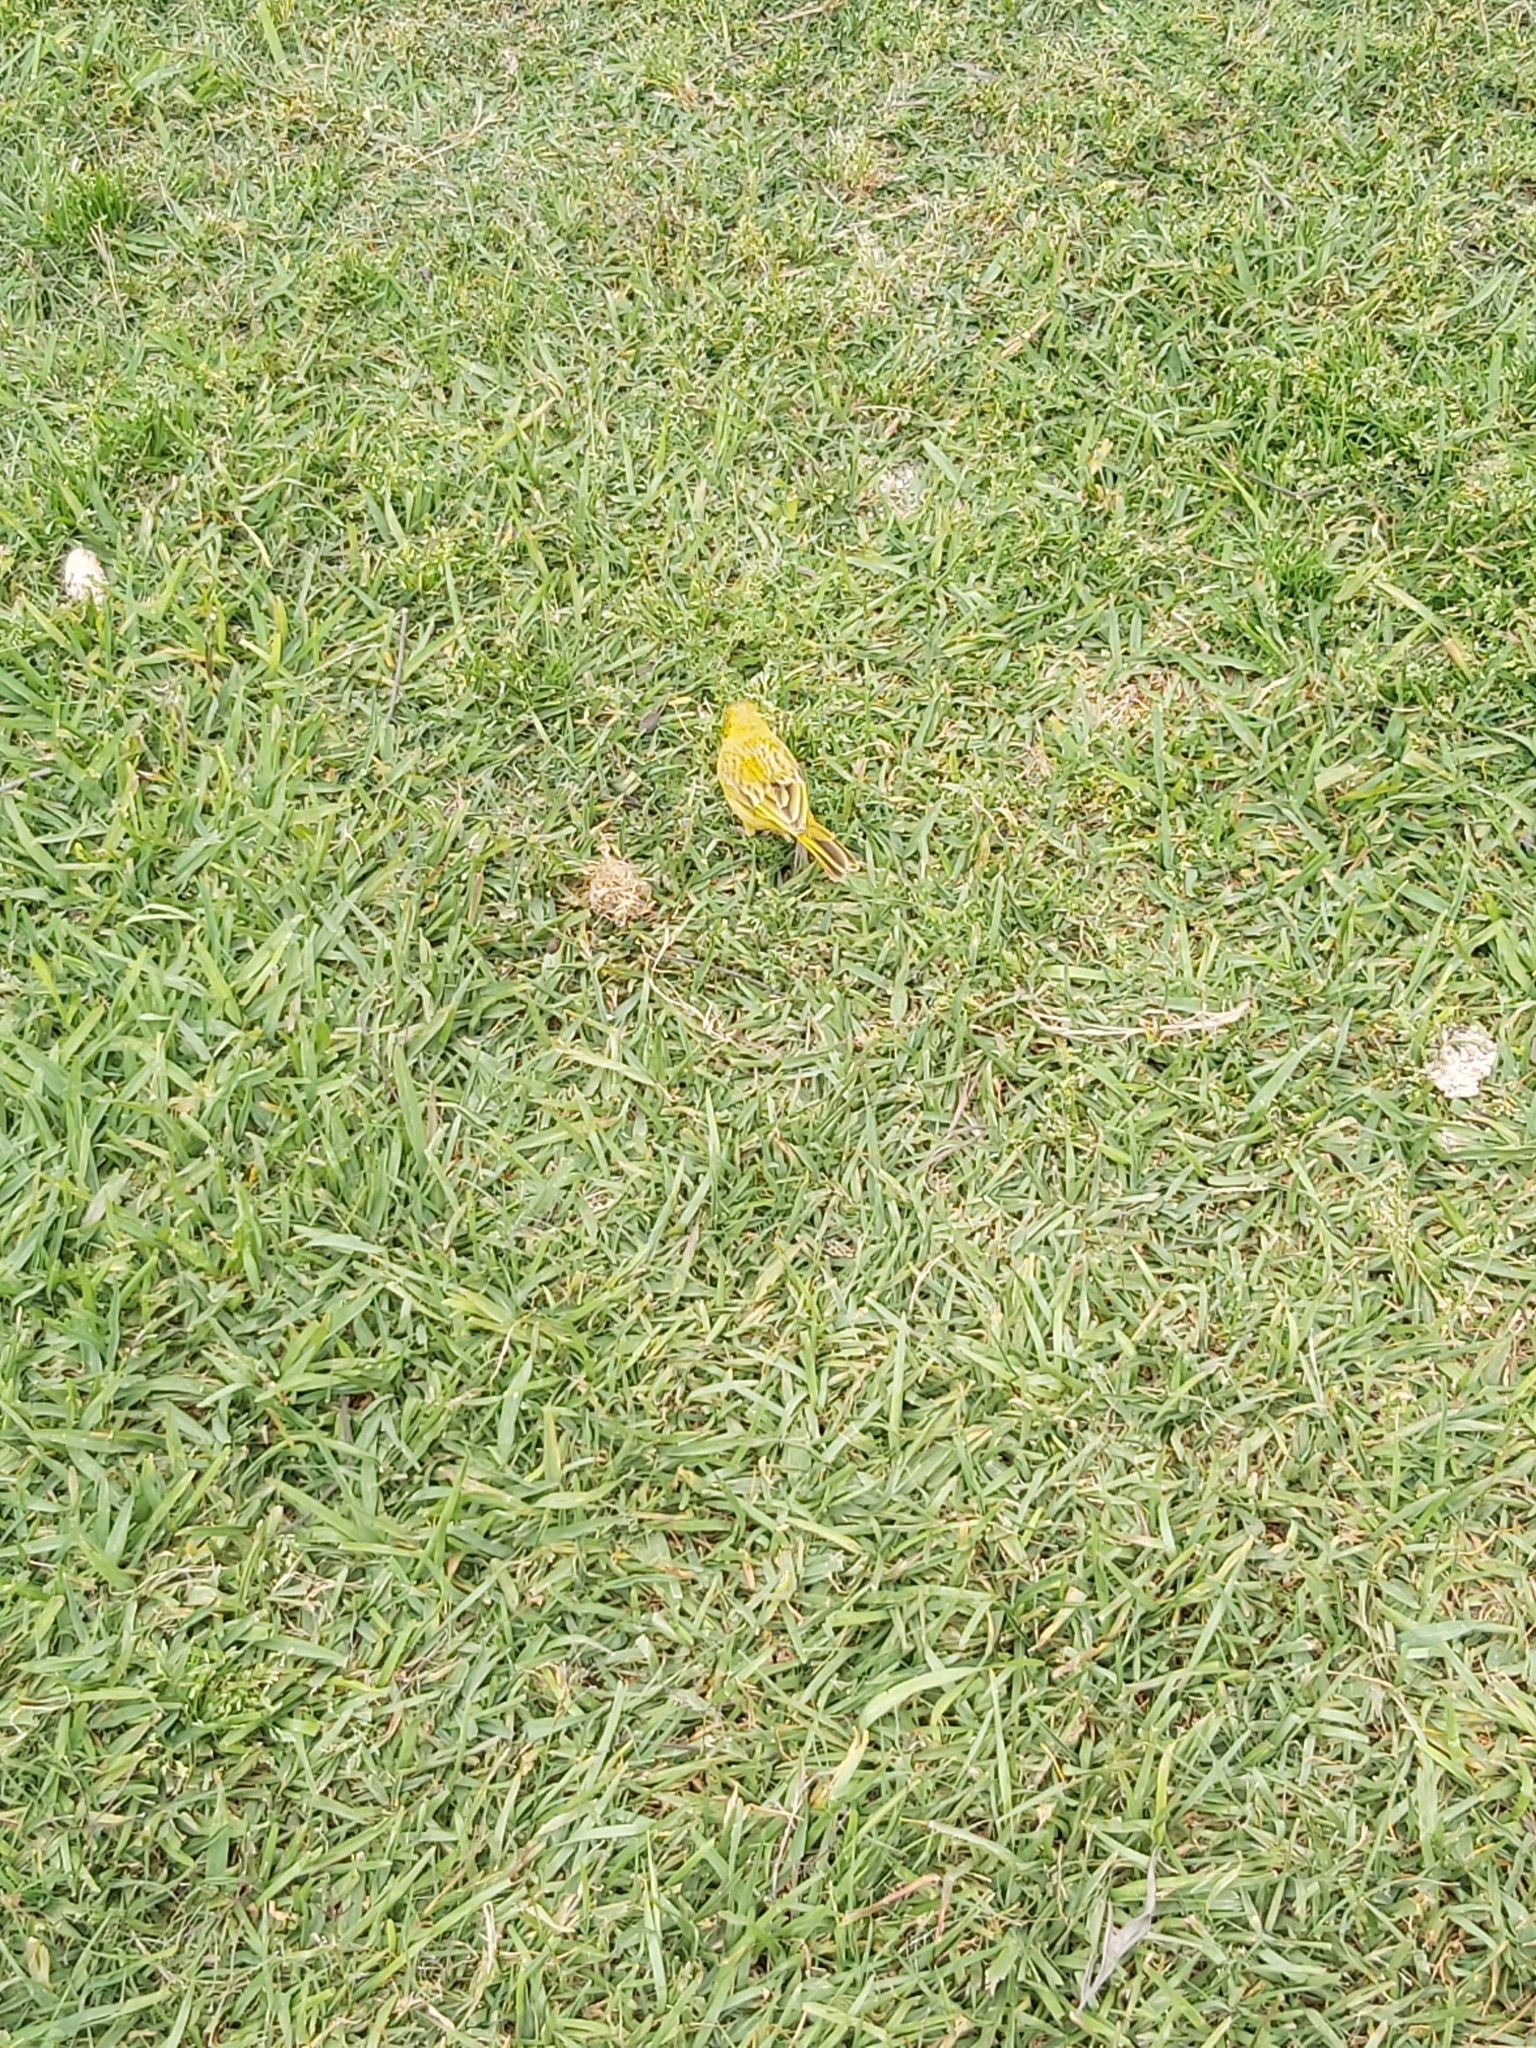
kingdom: Animalia
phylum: Chordata
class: Aves
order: Passeriformes
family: Thraupidae
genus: Sicalis
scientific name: Sicalis flaveola
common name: Saffron finch
